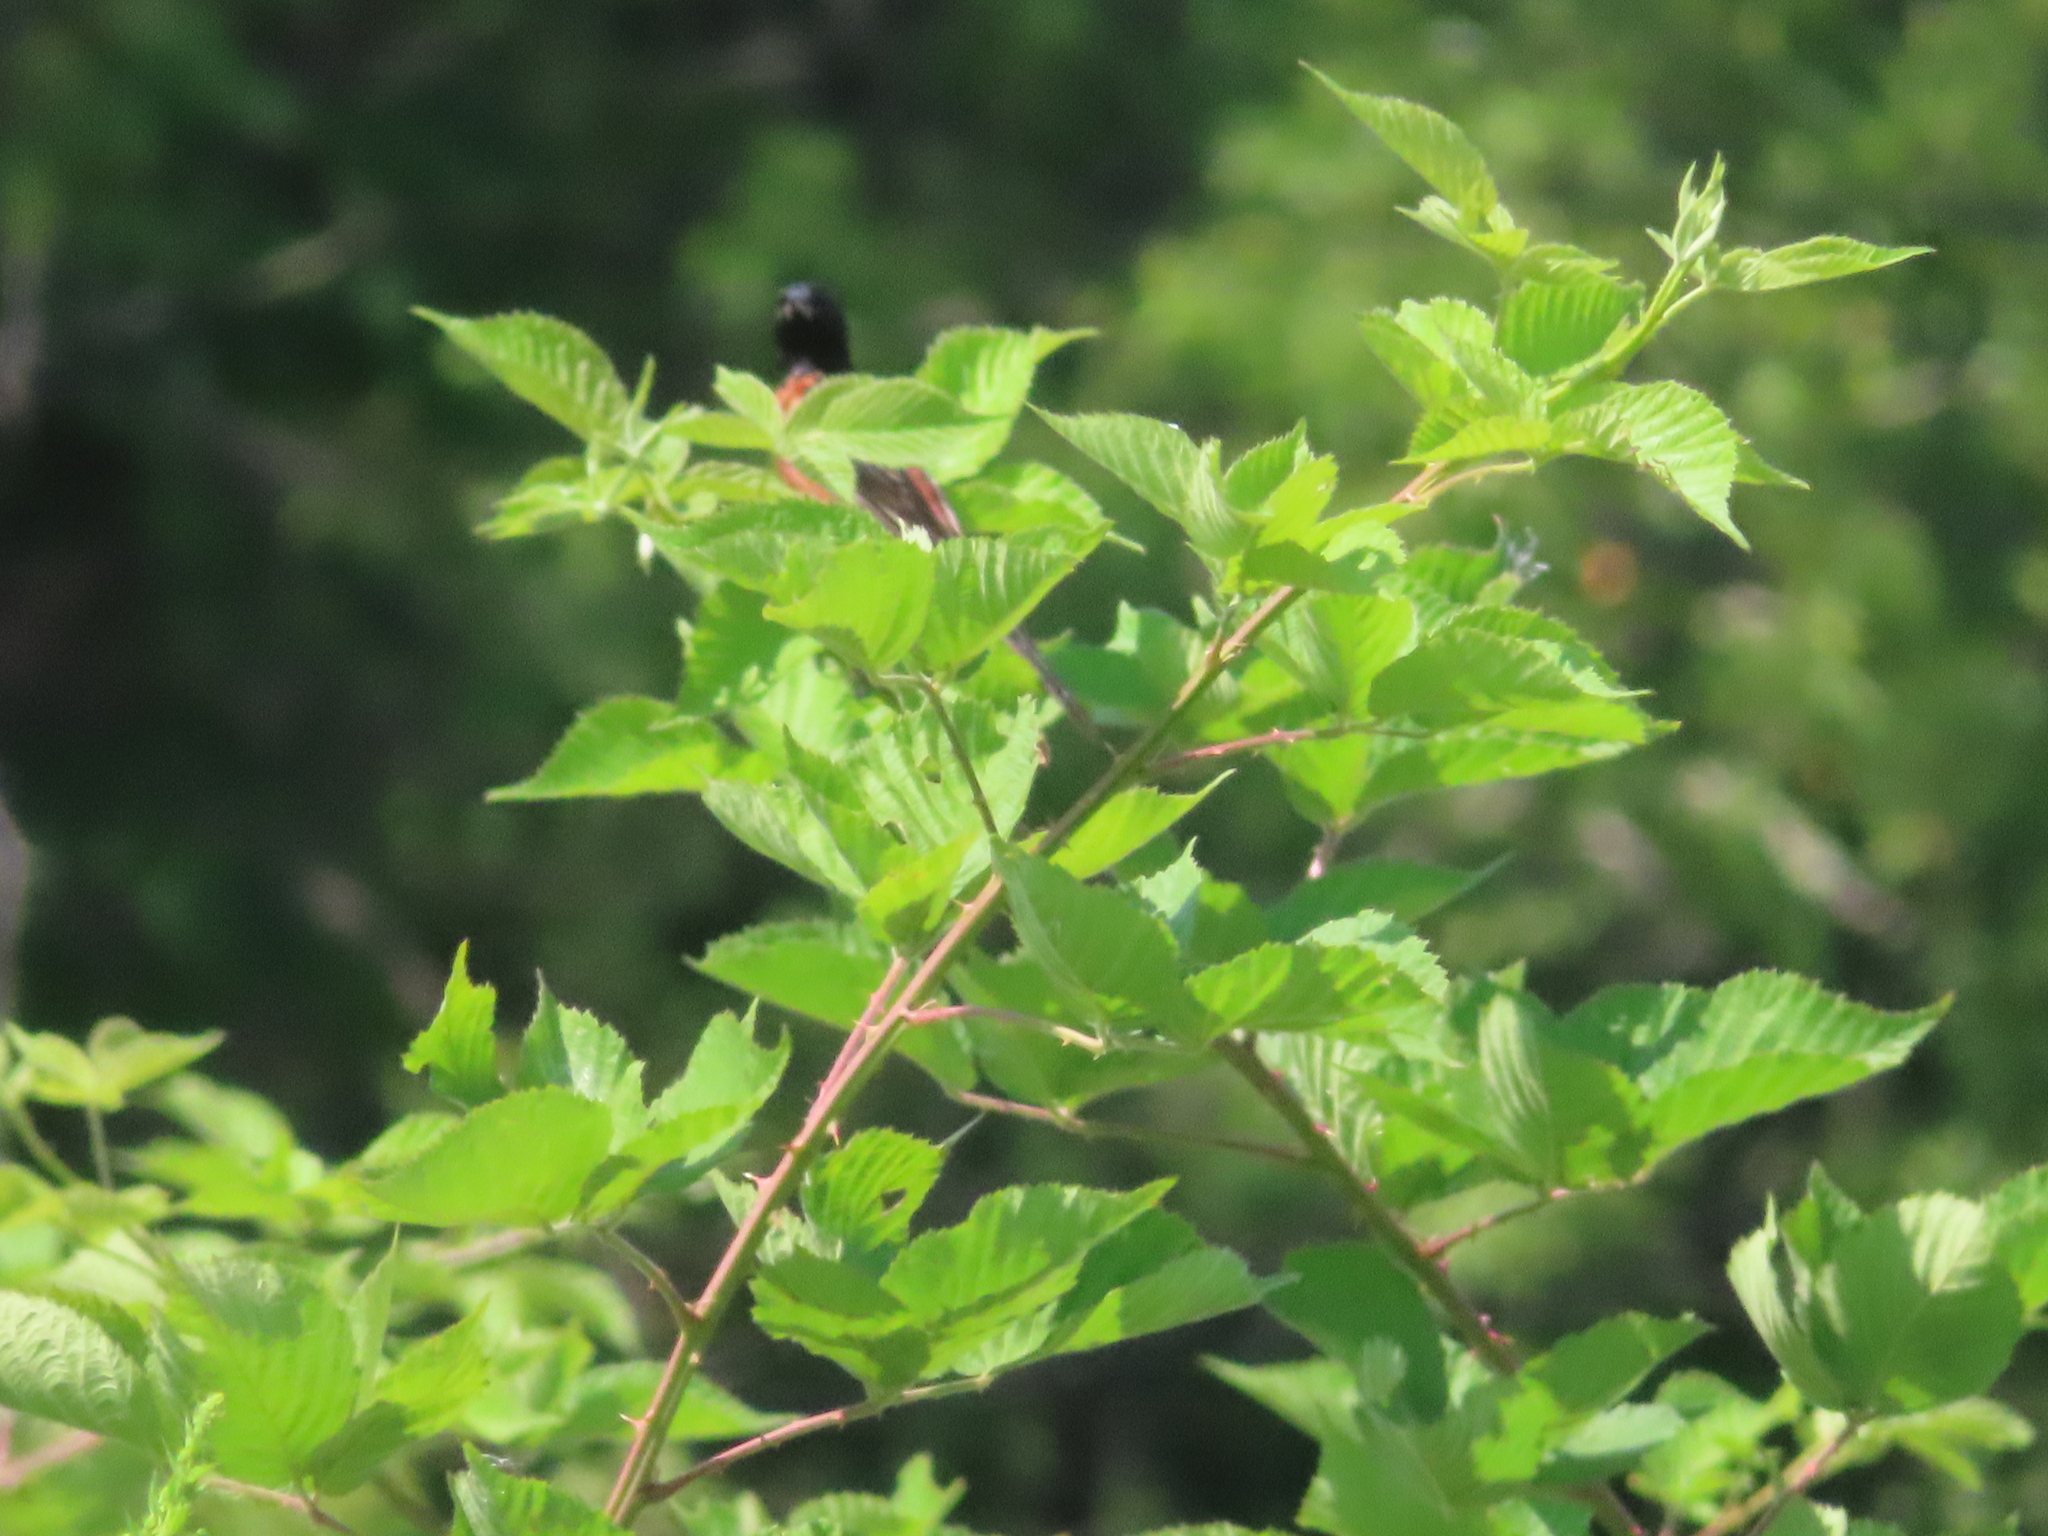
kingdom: Animalia
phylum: Chordata
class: Aves
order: Passeriformes
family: Icteridae
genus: Icterus
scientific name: Icterus spurius
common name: Orchard oriole
